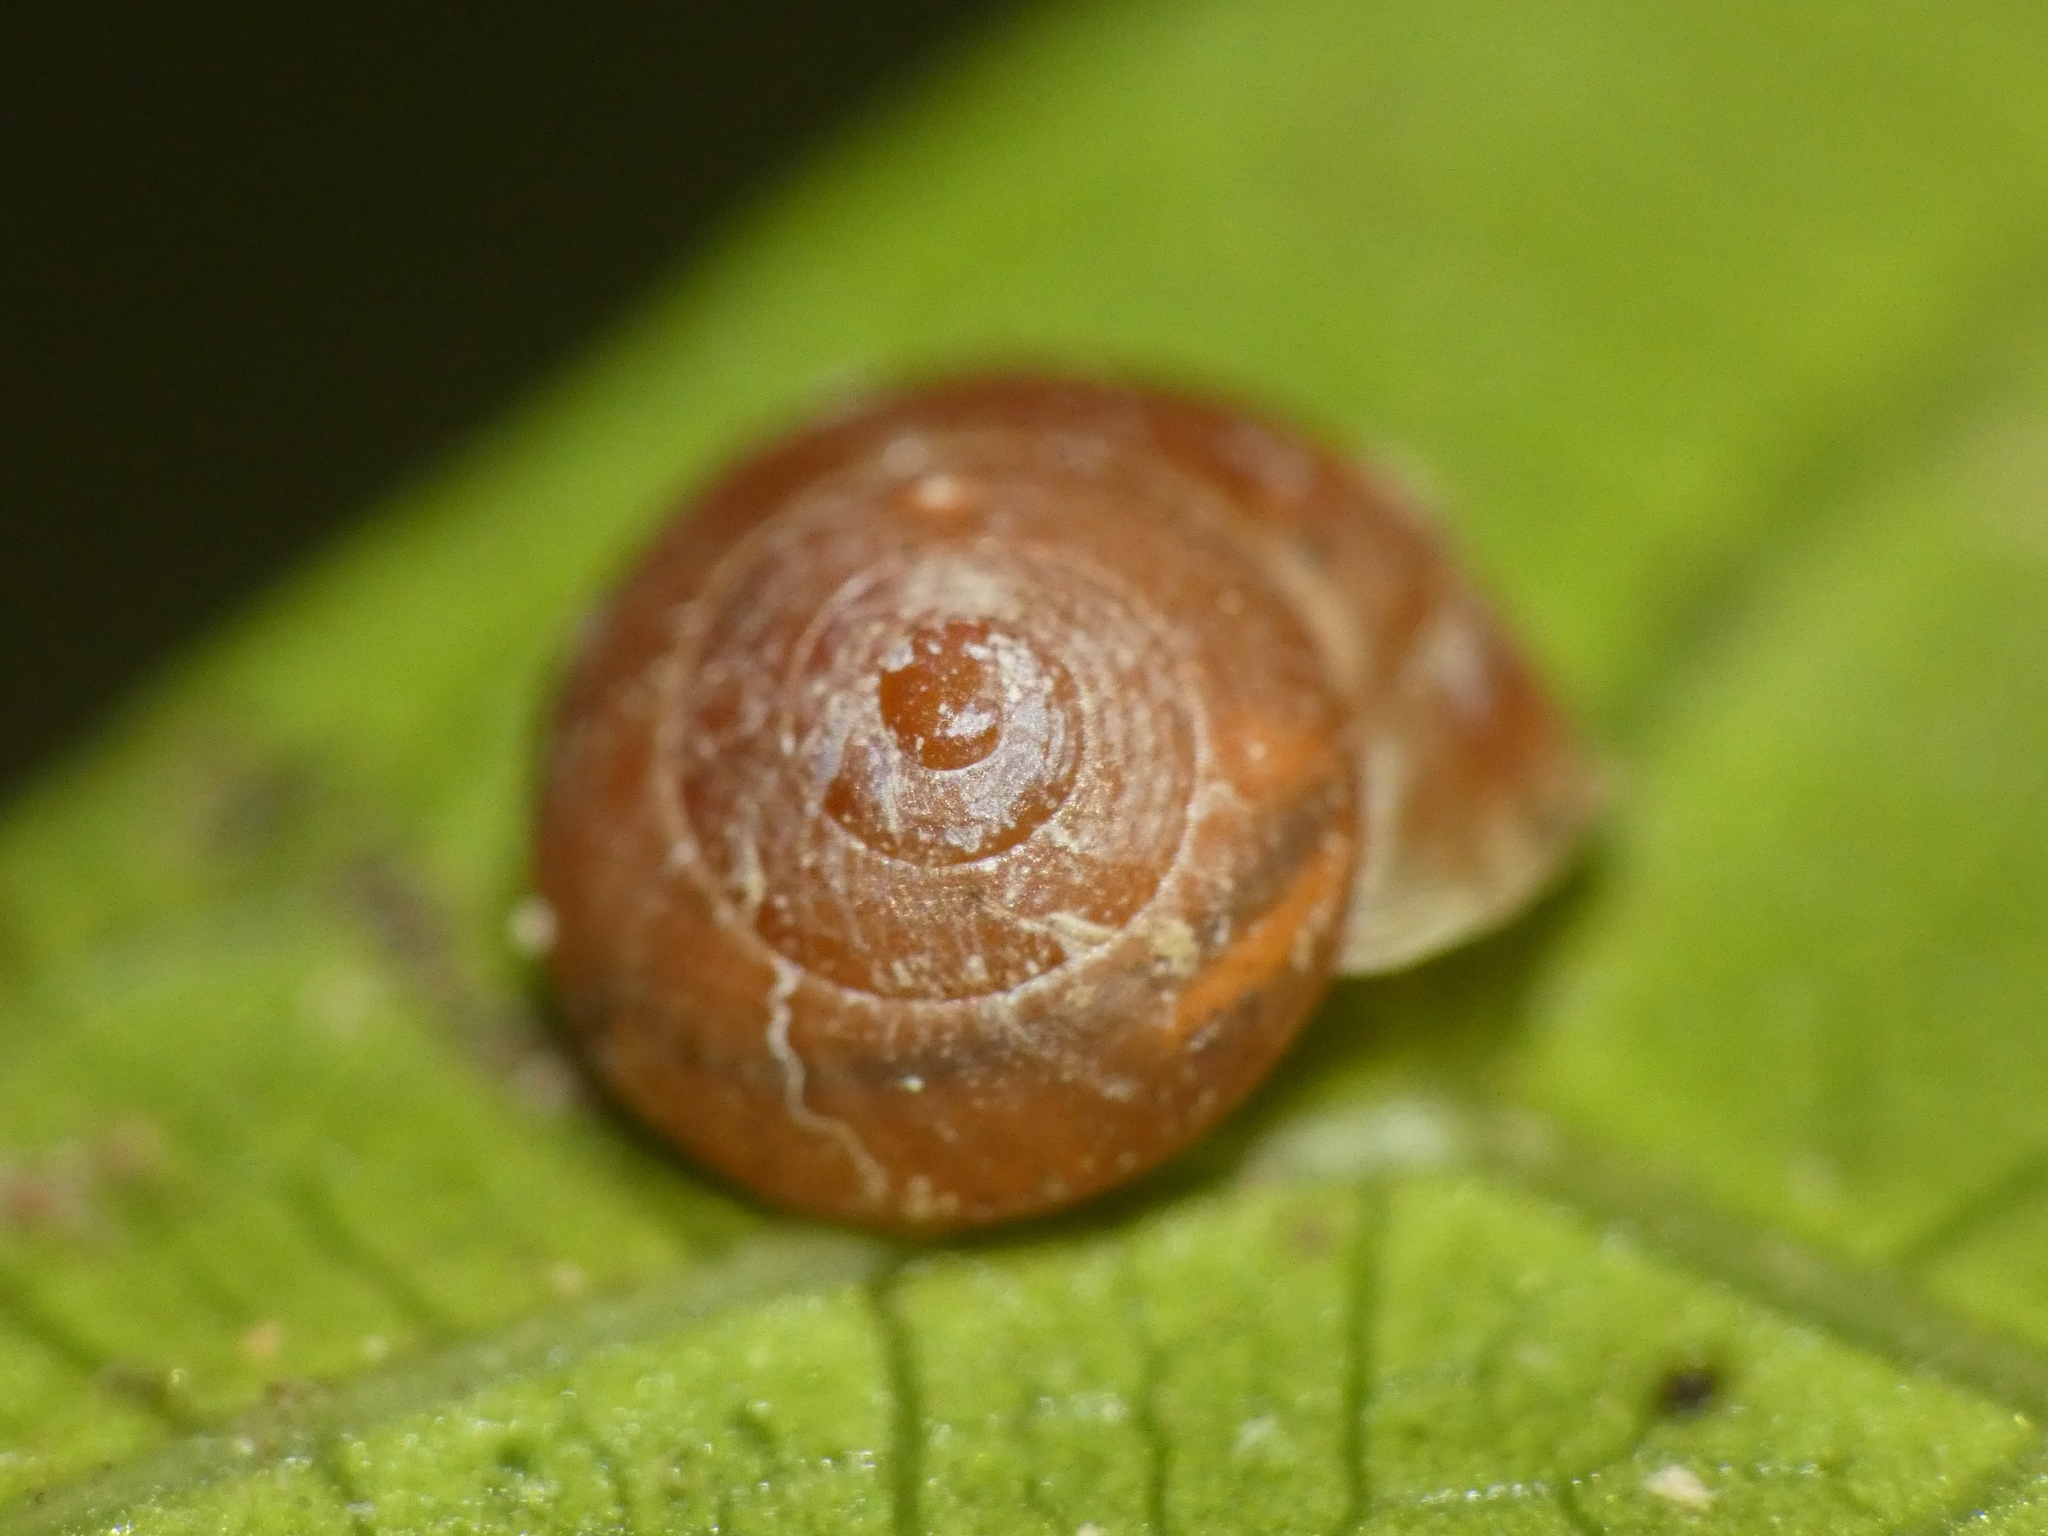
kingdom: Animalia
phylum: Mollusca
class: Gastropoda
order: Cycloneritida
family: Helicinidae
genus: Pleuropoma
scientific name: Pleuropoma gouldiana
